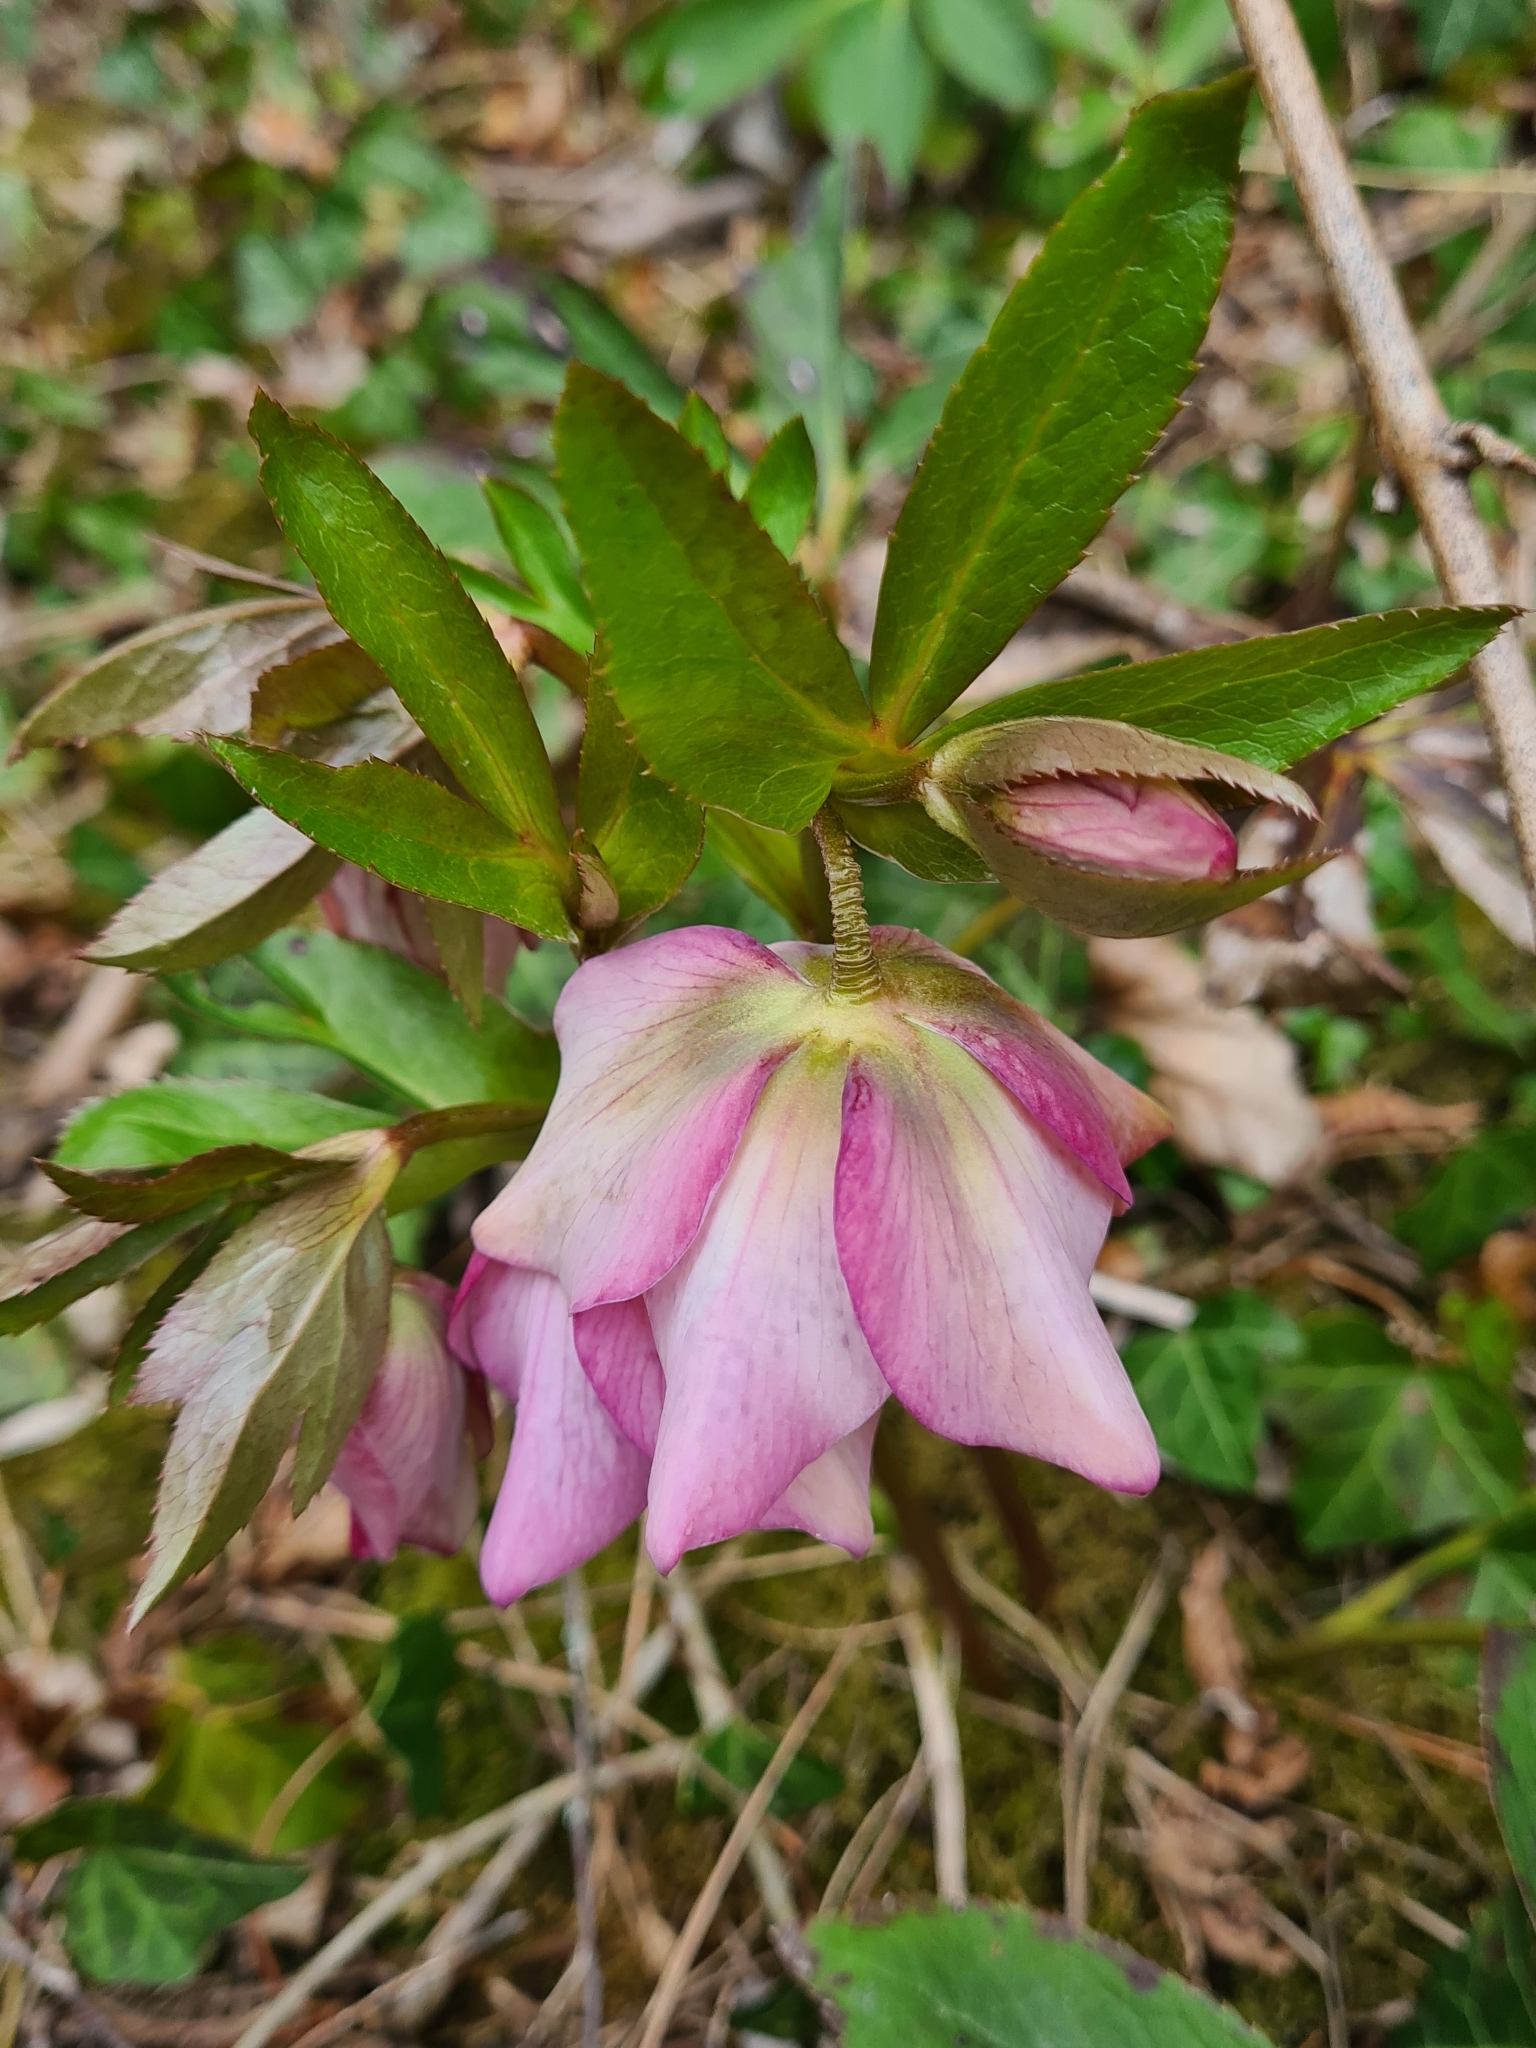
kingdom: Plantae
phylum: Tracheophyta
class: Magnoliopsida
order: Ranunculales
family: Ranunculaceae
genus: Helleborus
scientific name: Helleborus hybridus
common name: Hybrid lenten-rose
